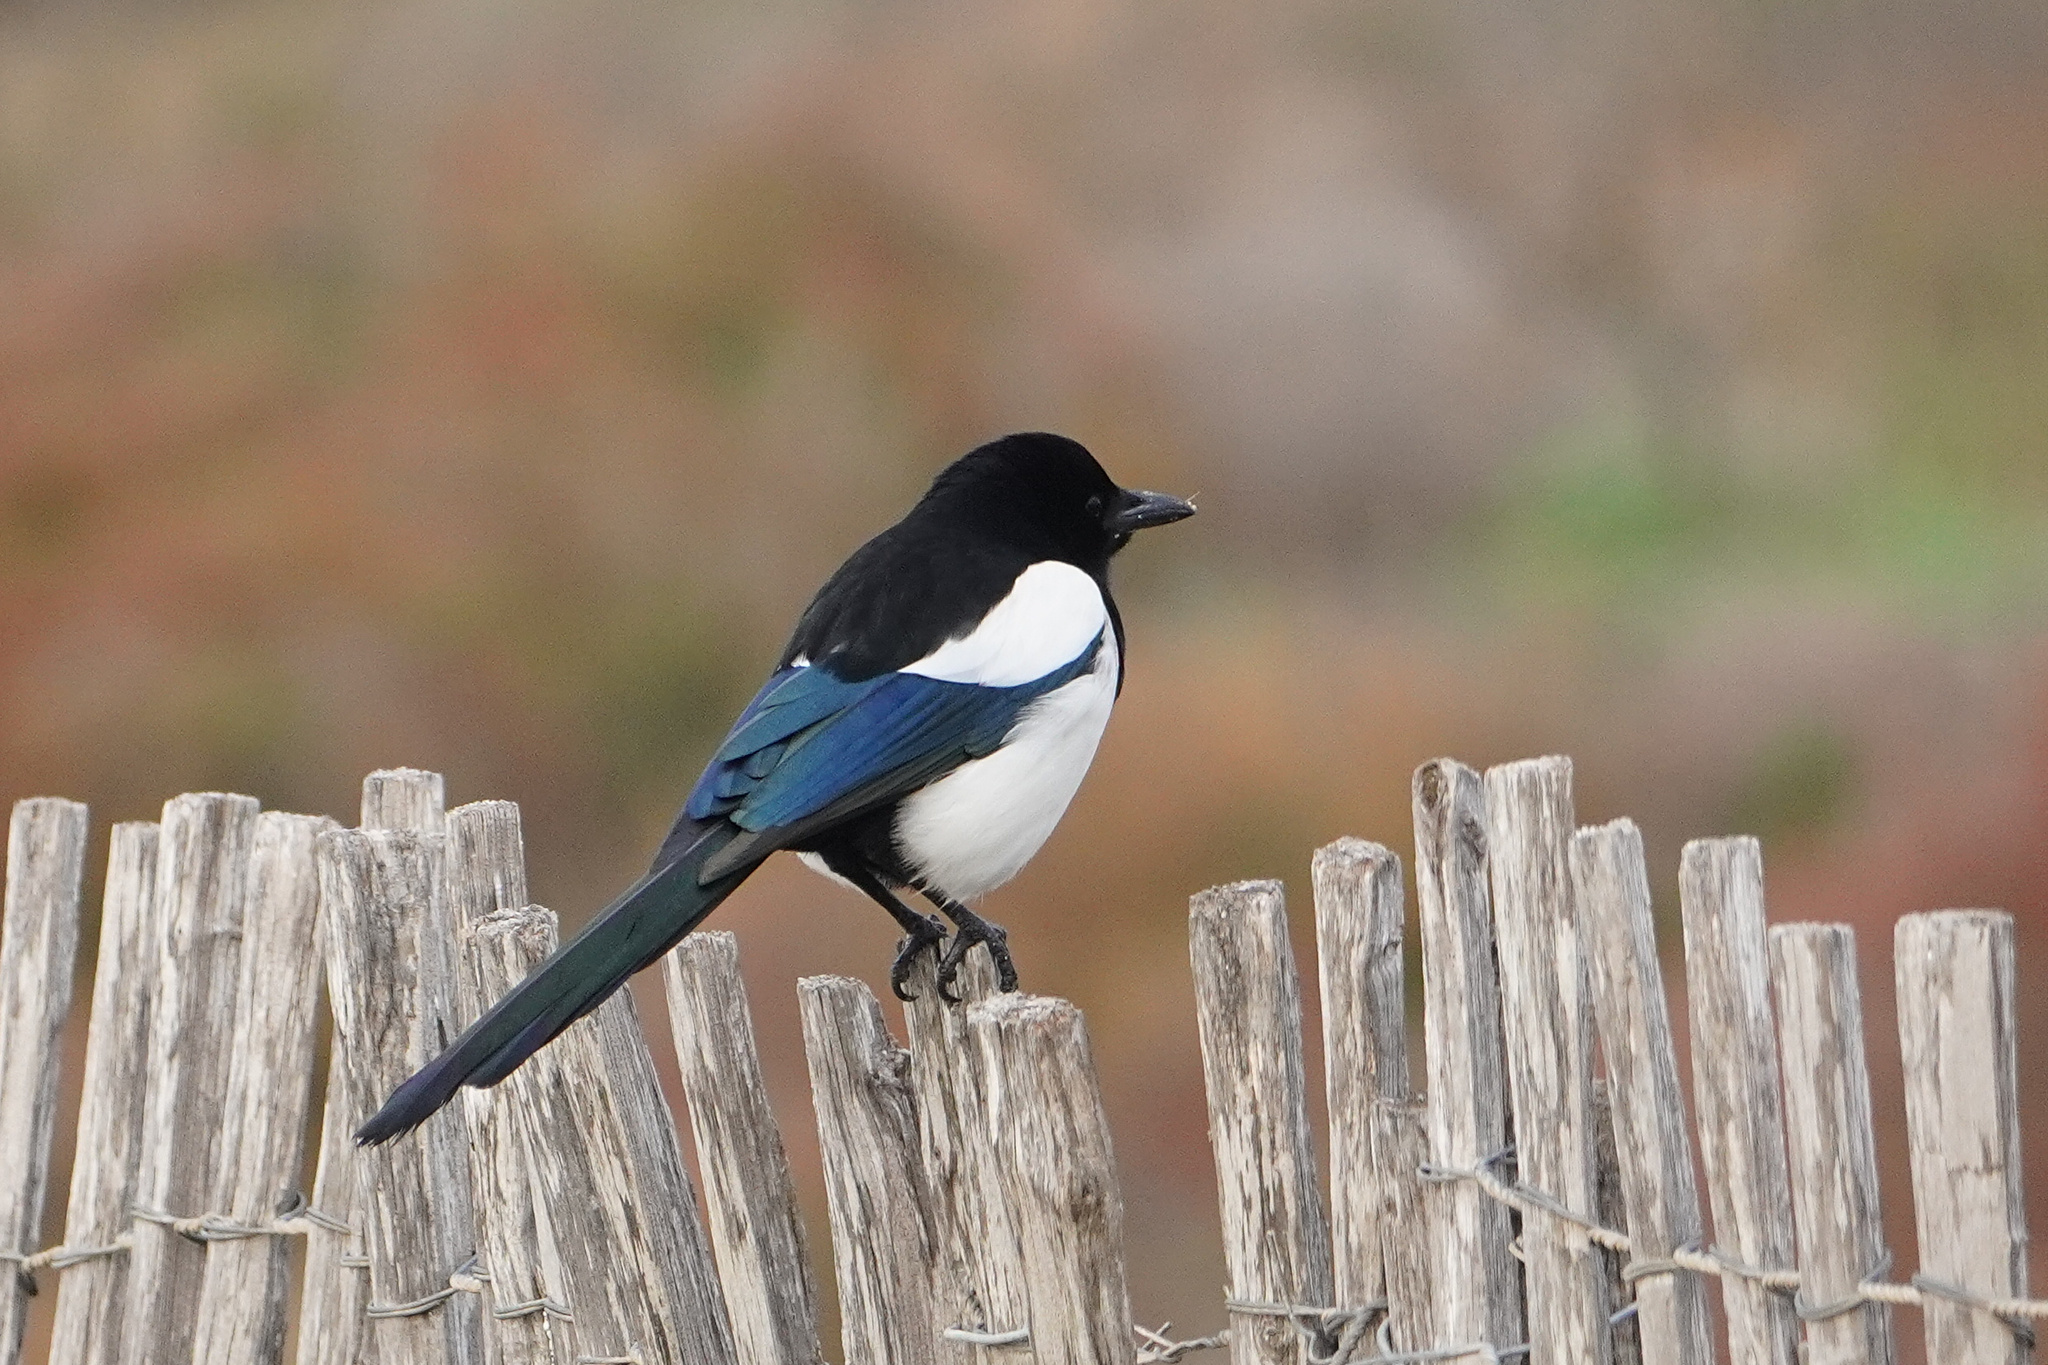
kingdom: Animalia
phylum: Chordata
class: Aves
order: Passeriformes
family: Corvidae
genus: Pica
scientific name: Pica pica
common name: Eurasian magpie
